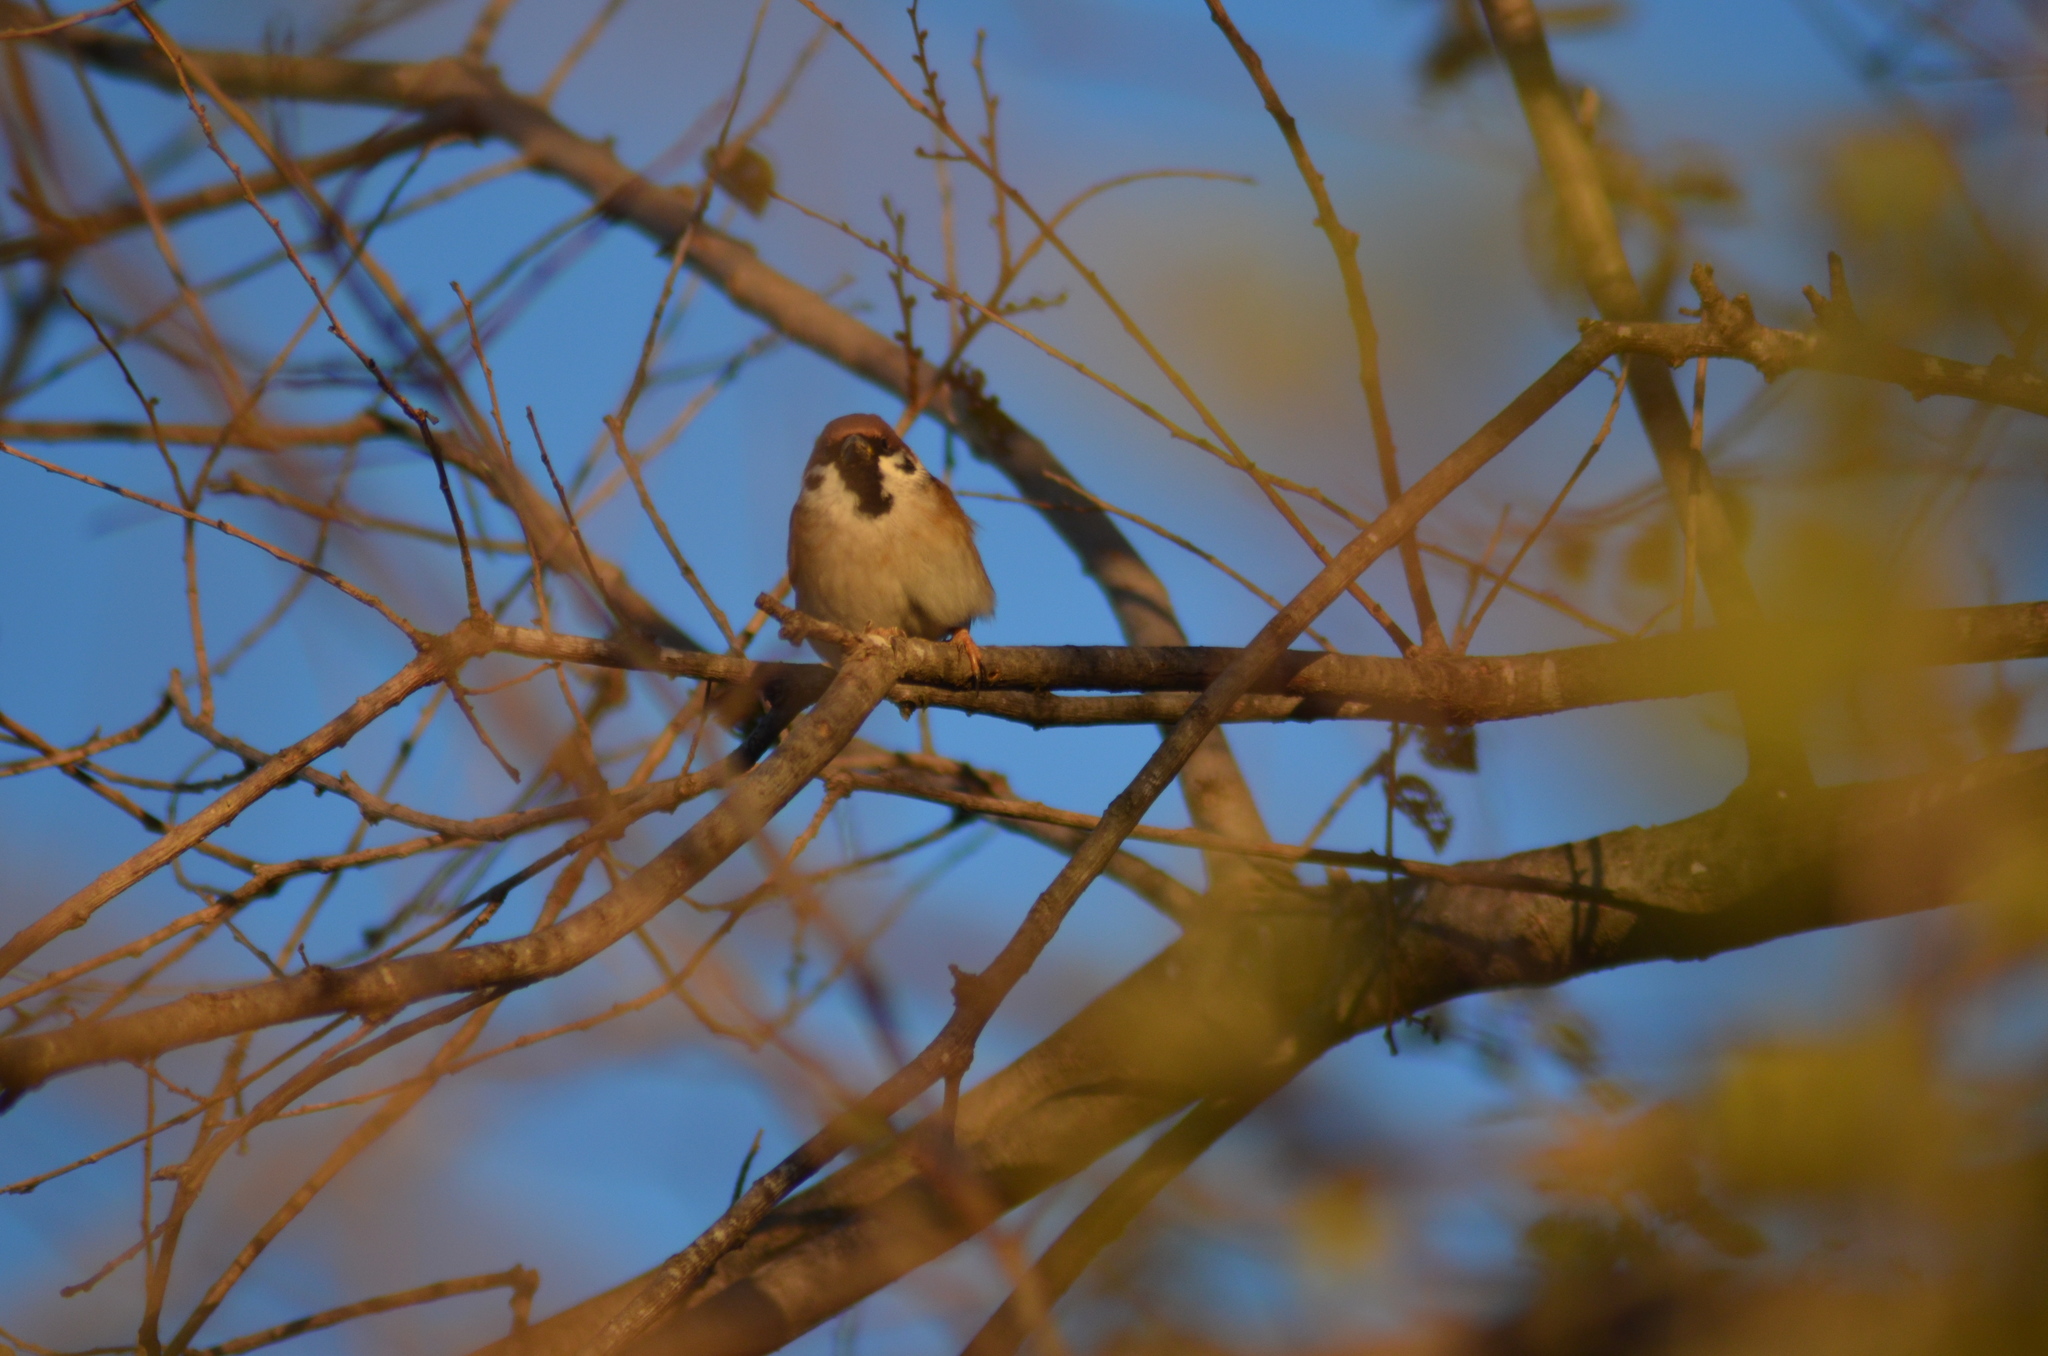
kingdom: Animalia
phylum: Chordata
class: Aves
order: Passeriformes
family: Passeridae
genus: Passer
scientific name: Passer montanus
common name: Eurasian tree sparrow
